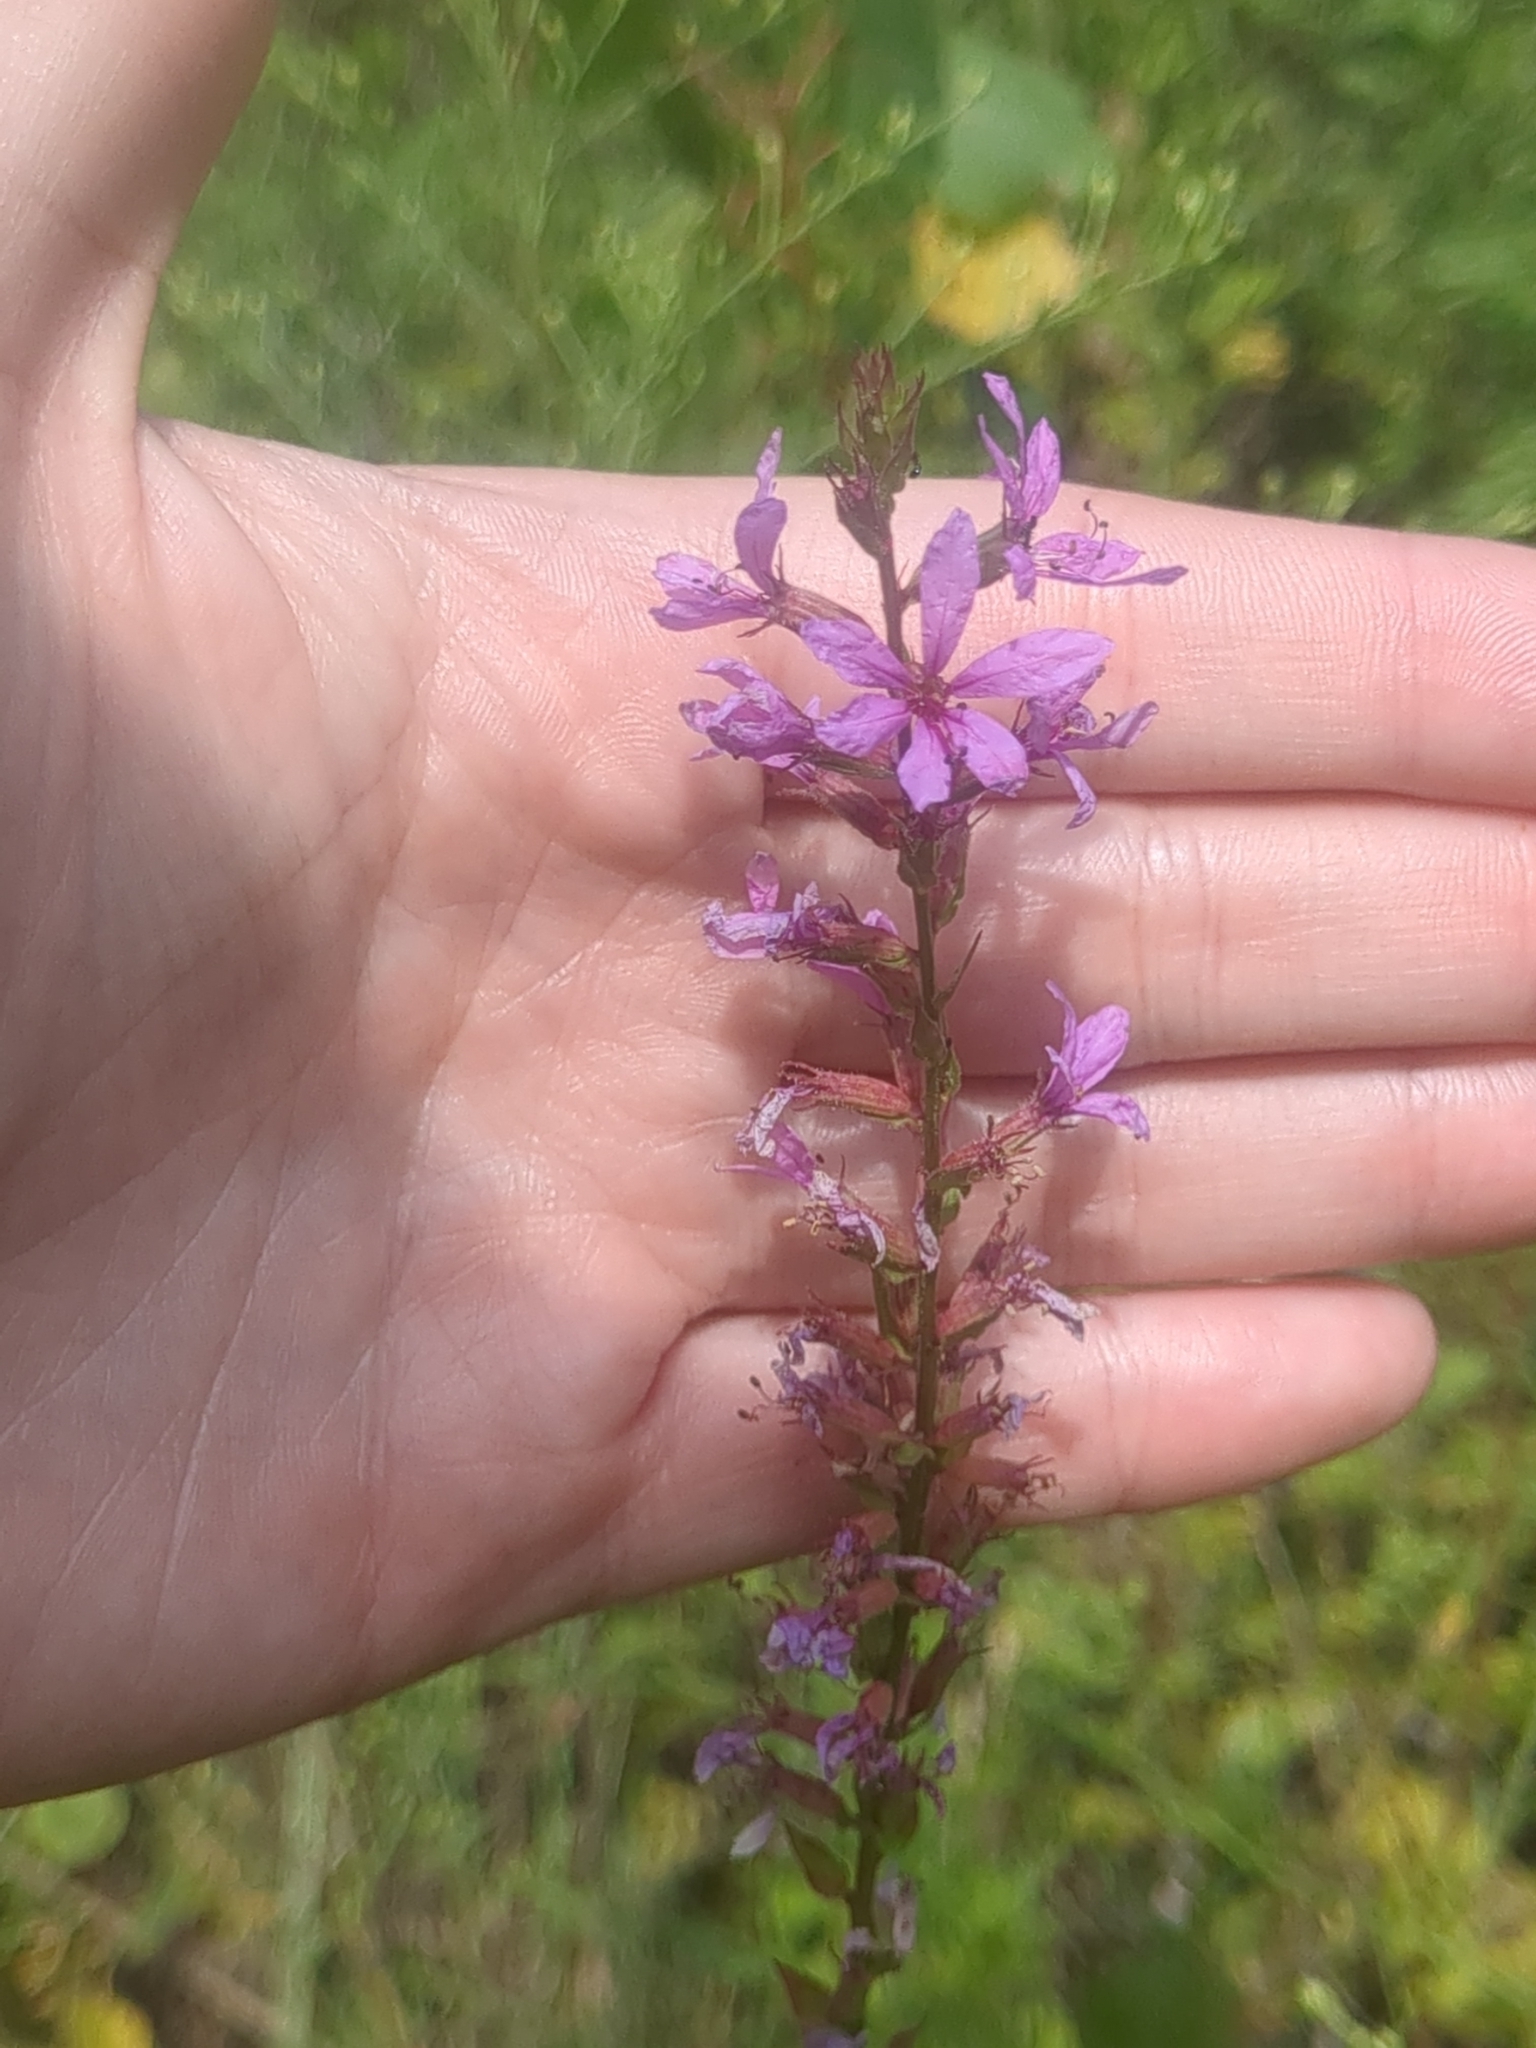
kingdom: Plantae
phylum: Tracheophyta
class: Magnoliopsida
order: Myrtales
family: Lythraceae
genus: Lythrum
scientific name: Lythrum salicaria
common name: Purple loosestrife
